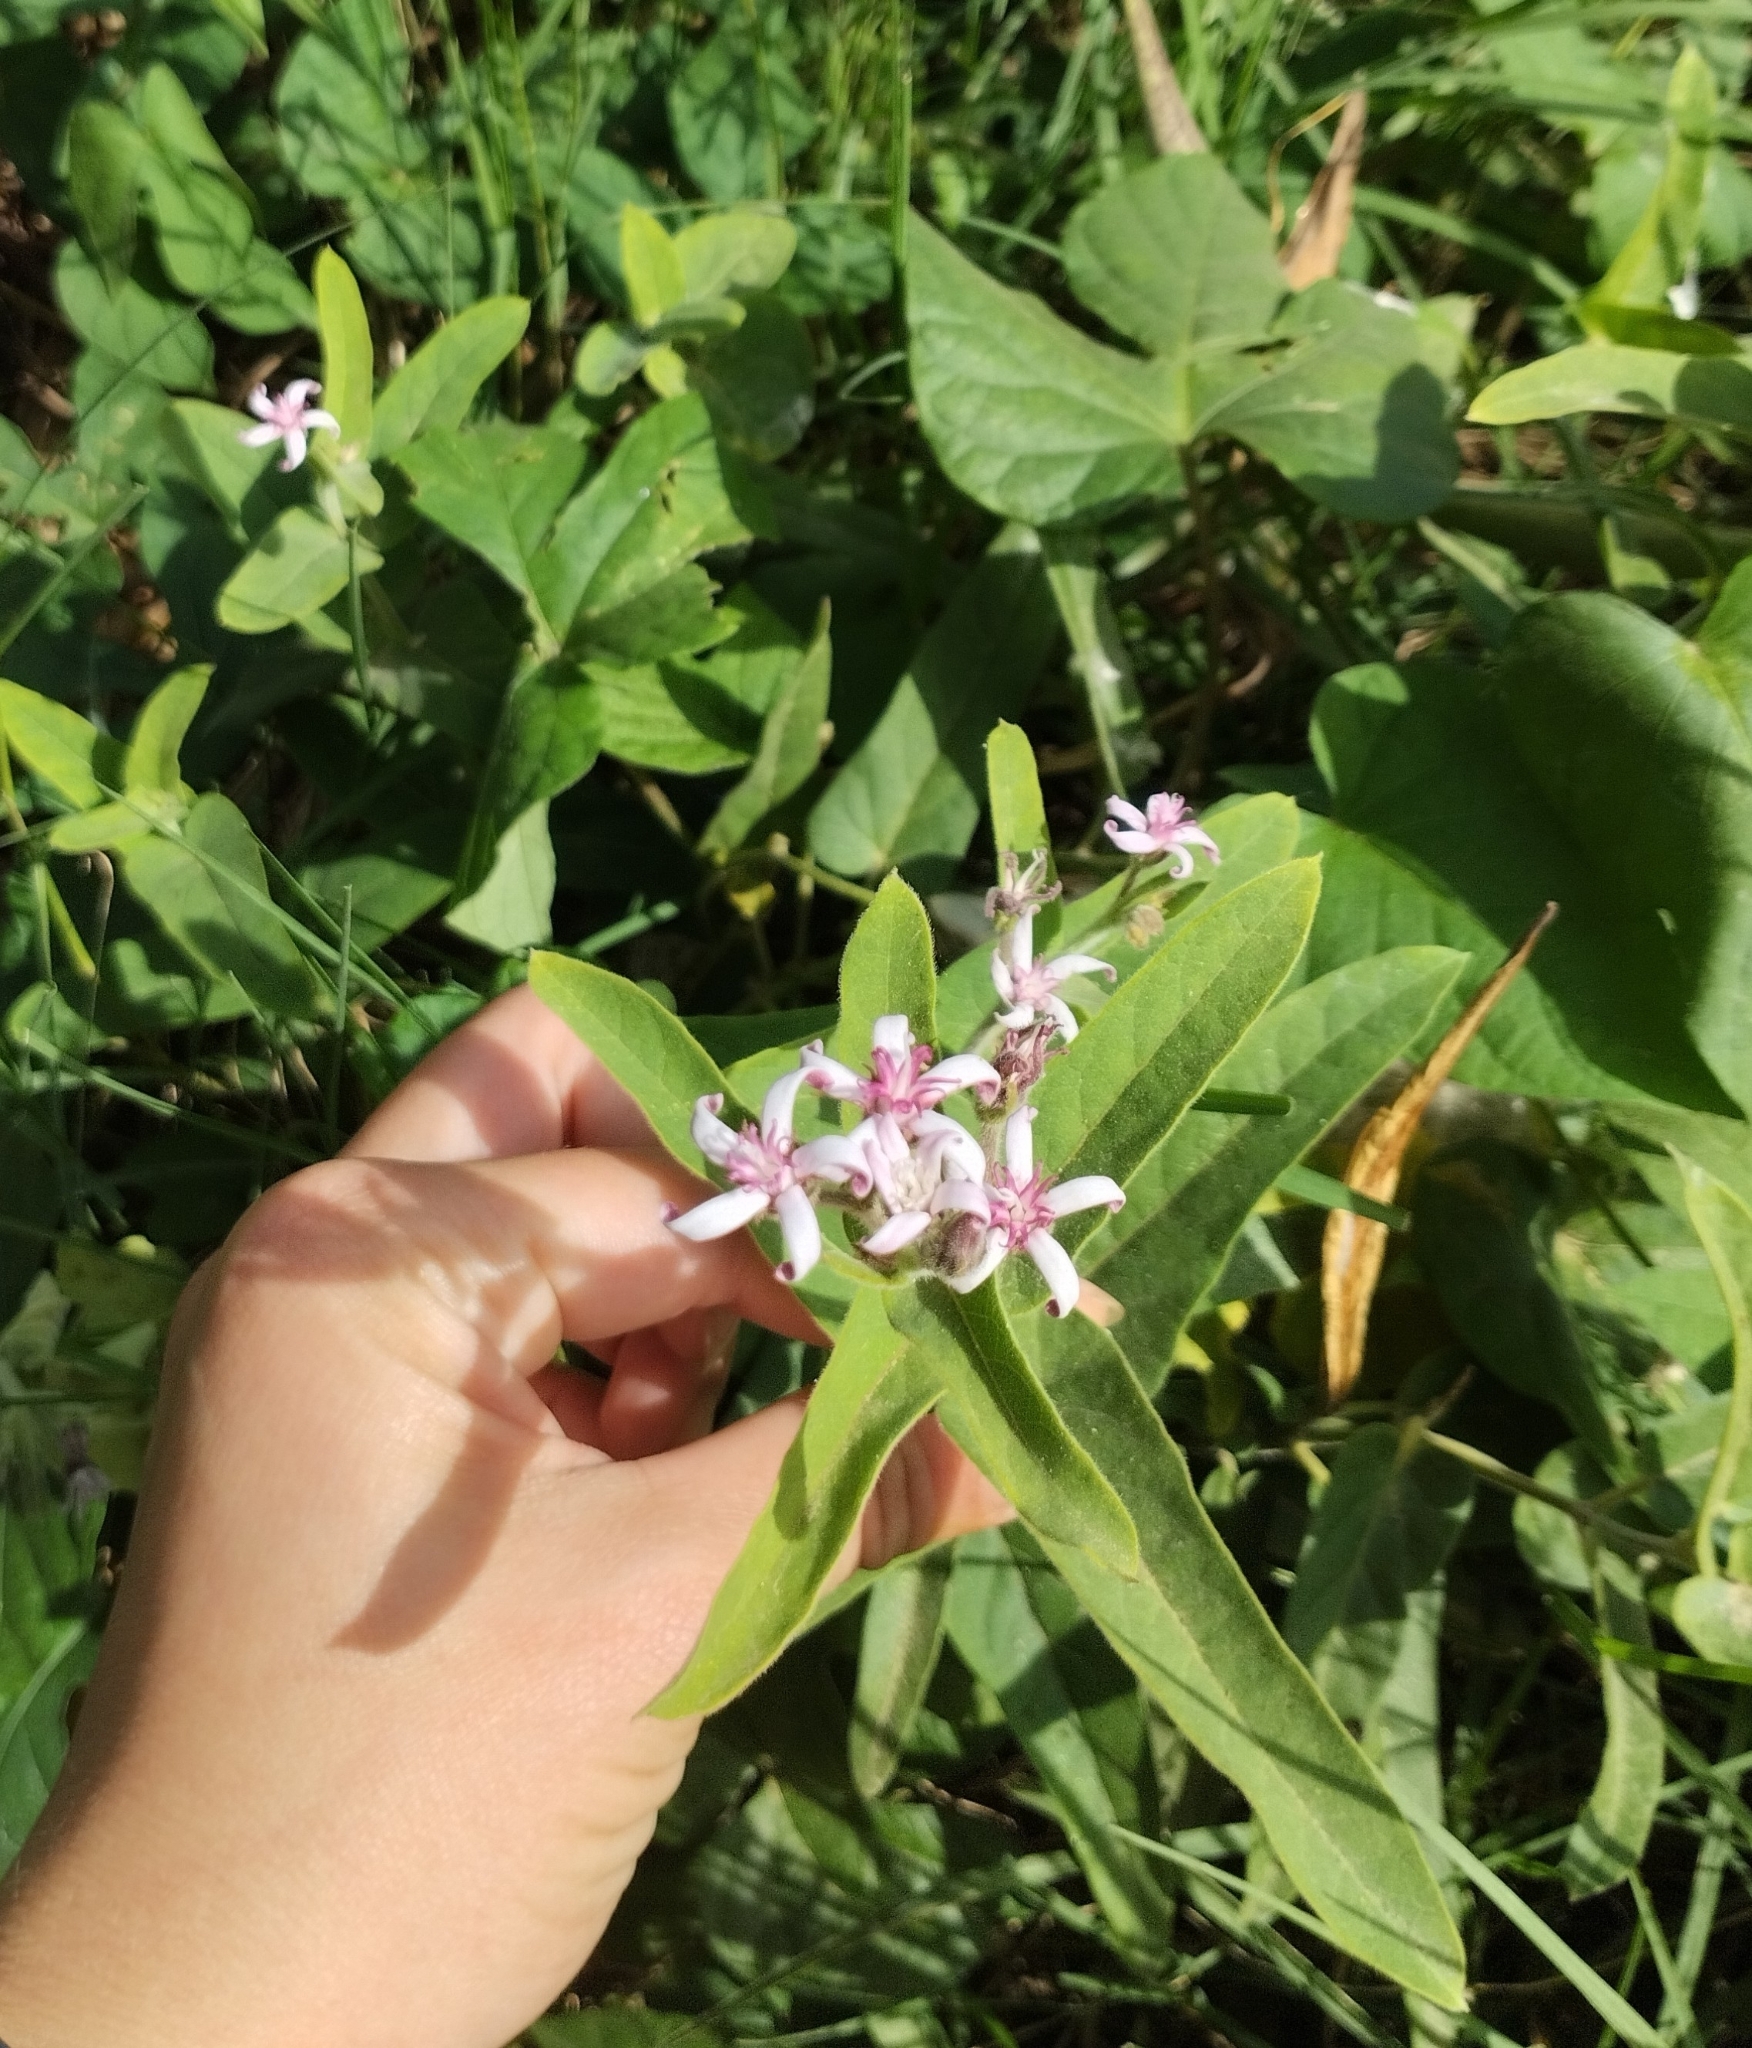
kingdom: Plantae
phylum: Tracheophyta
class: Magnoliopsida
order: Gentianales
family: Apocynaceae
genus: Oxypetalum
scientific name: Oxypetalum solanoides
